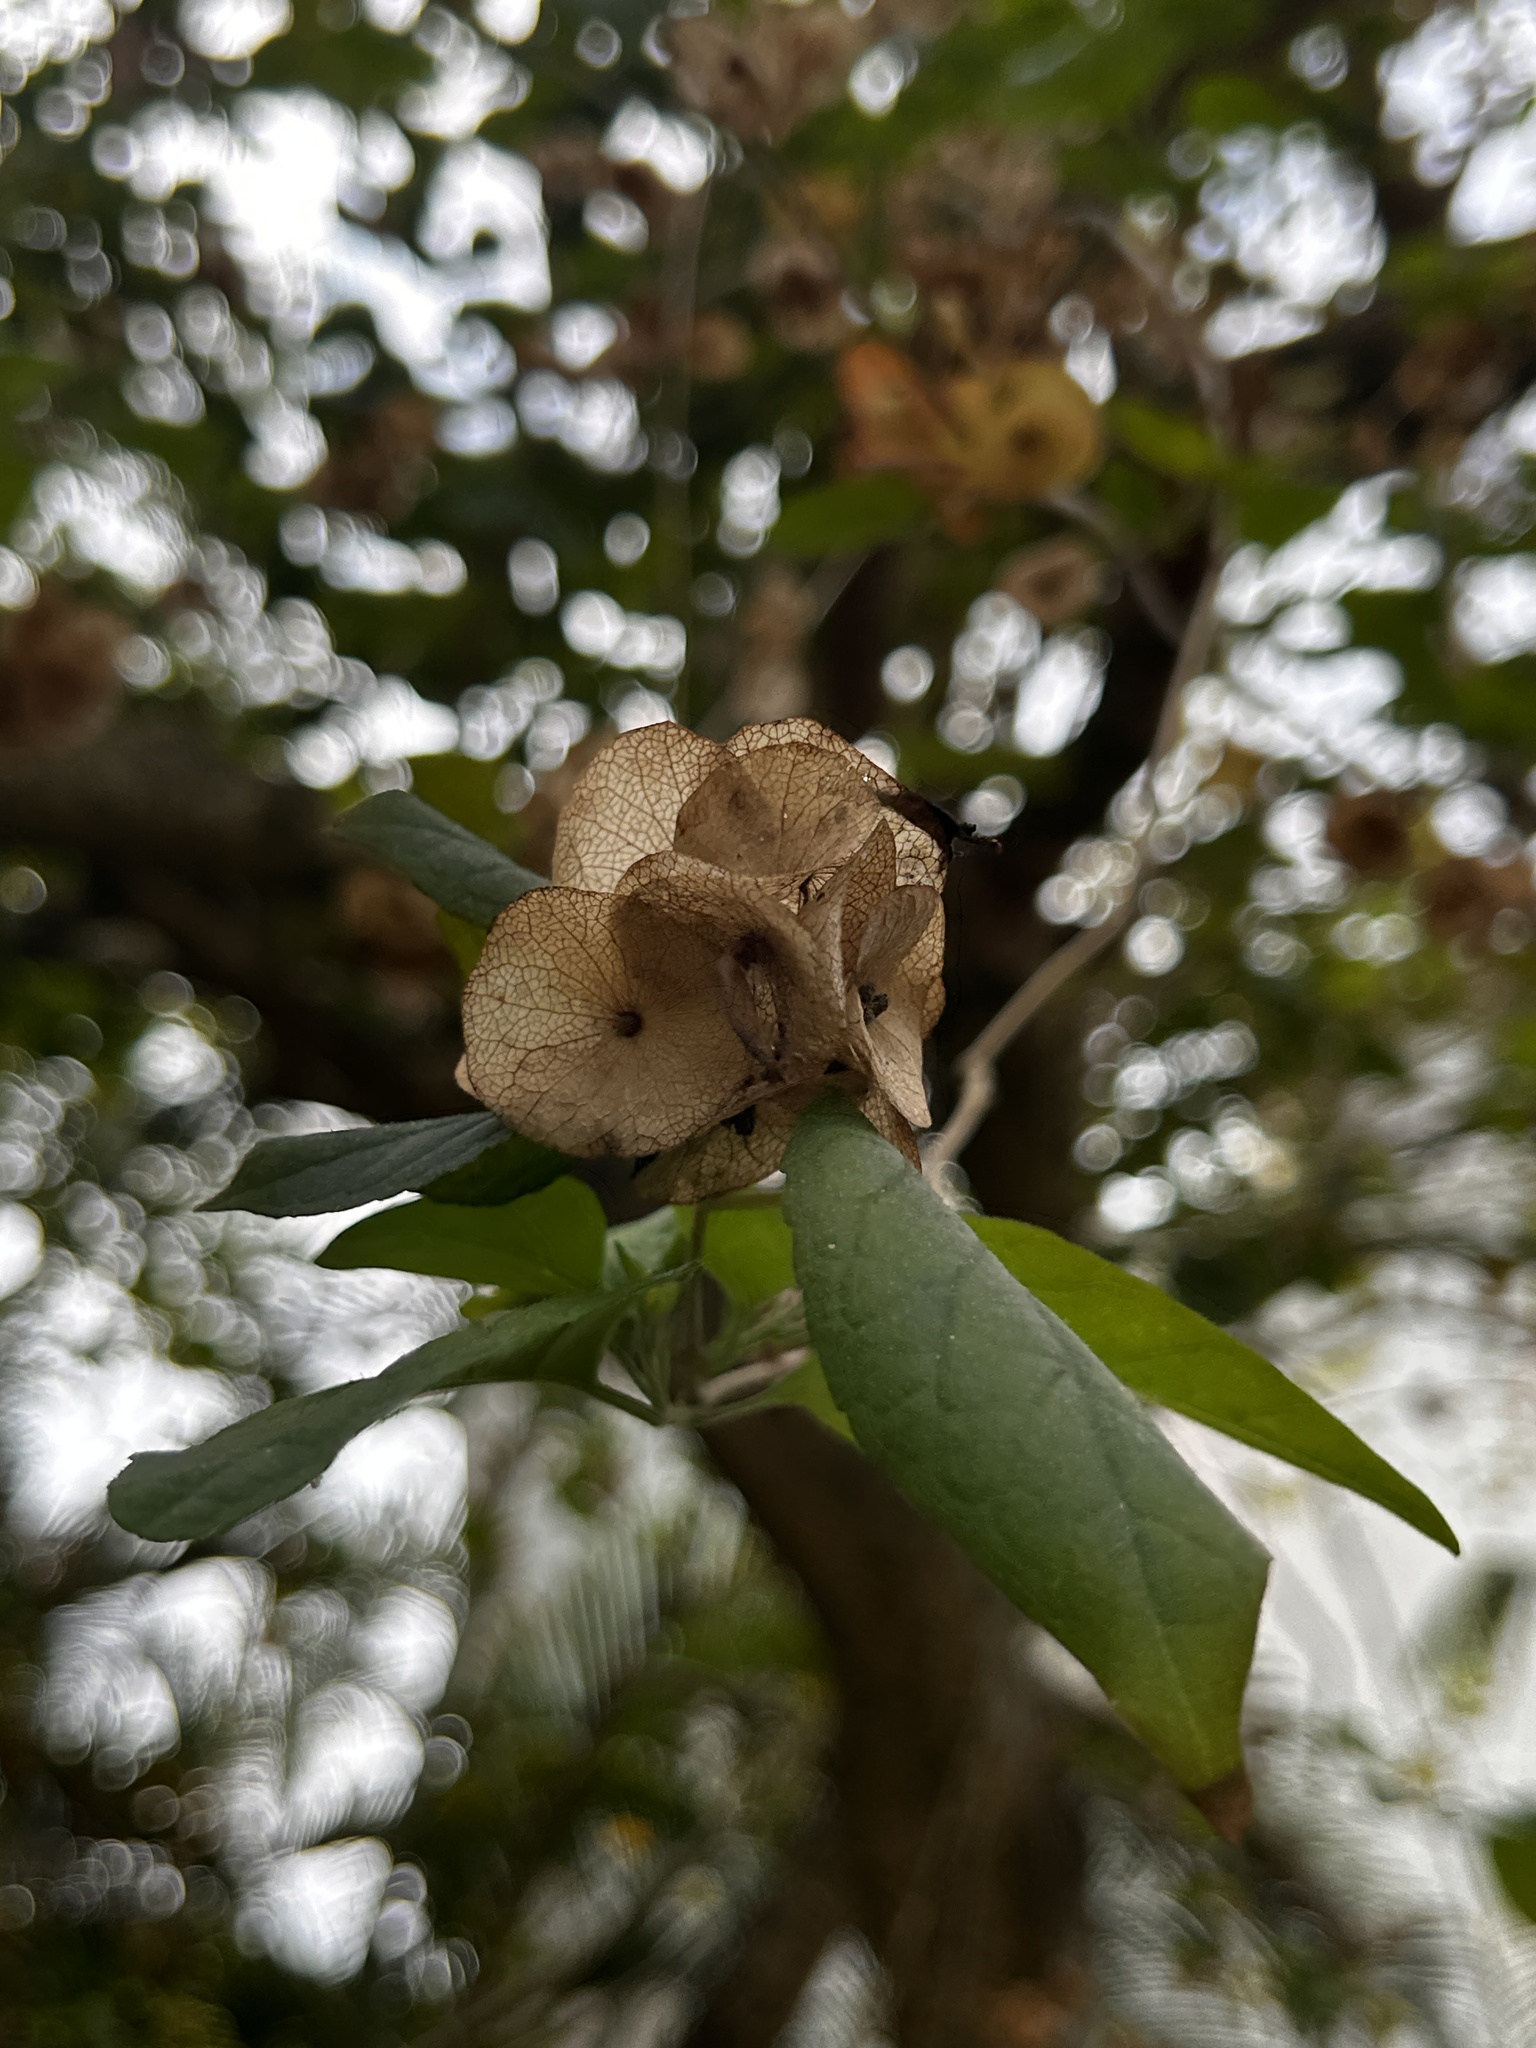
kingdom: Plantae
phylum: Tracheophyta
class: Magnoliopsida
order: Lamiales
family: Lamiaceae
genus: Holmskioldia
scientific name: Holmskioldia sanguinea
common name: Chinese hatplant
